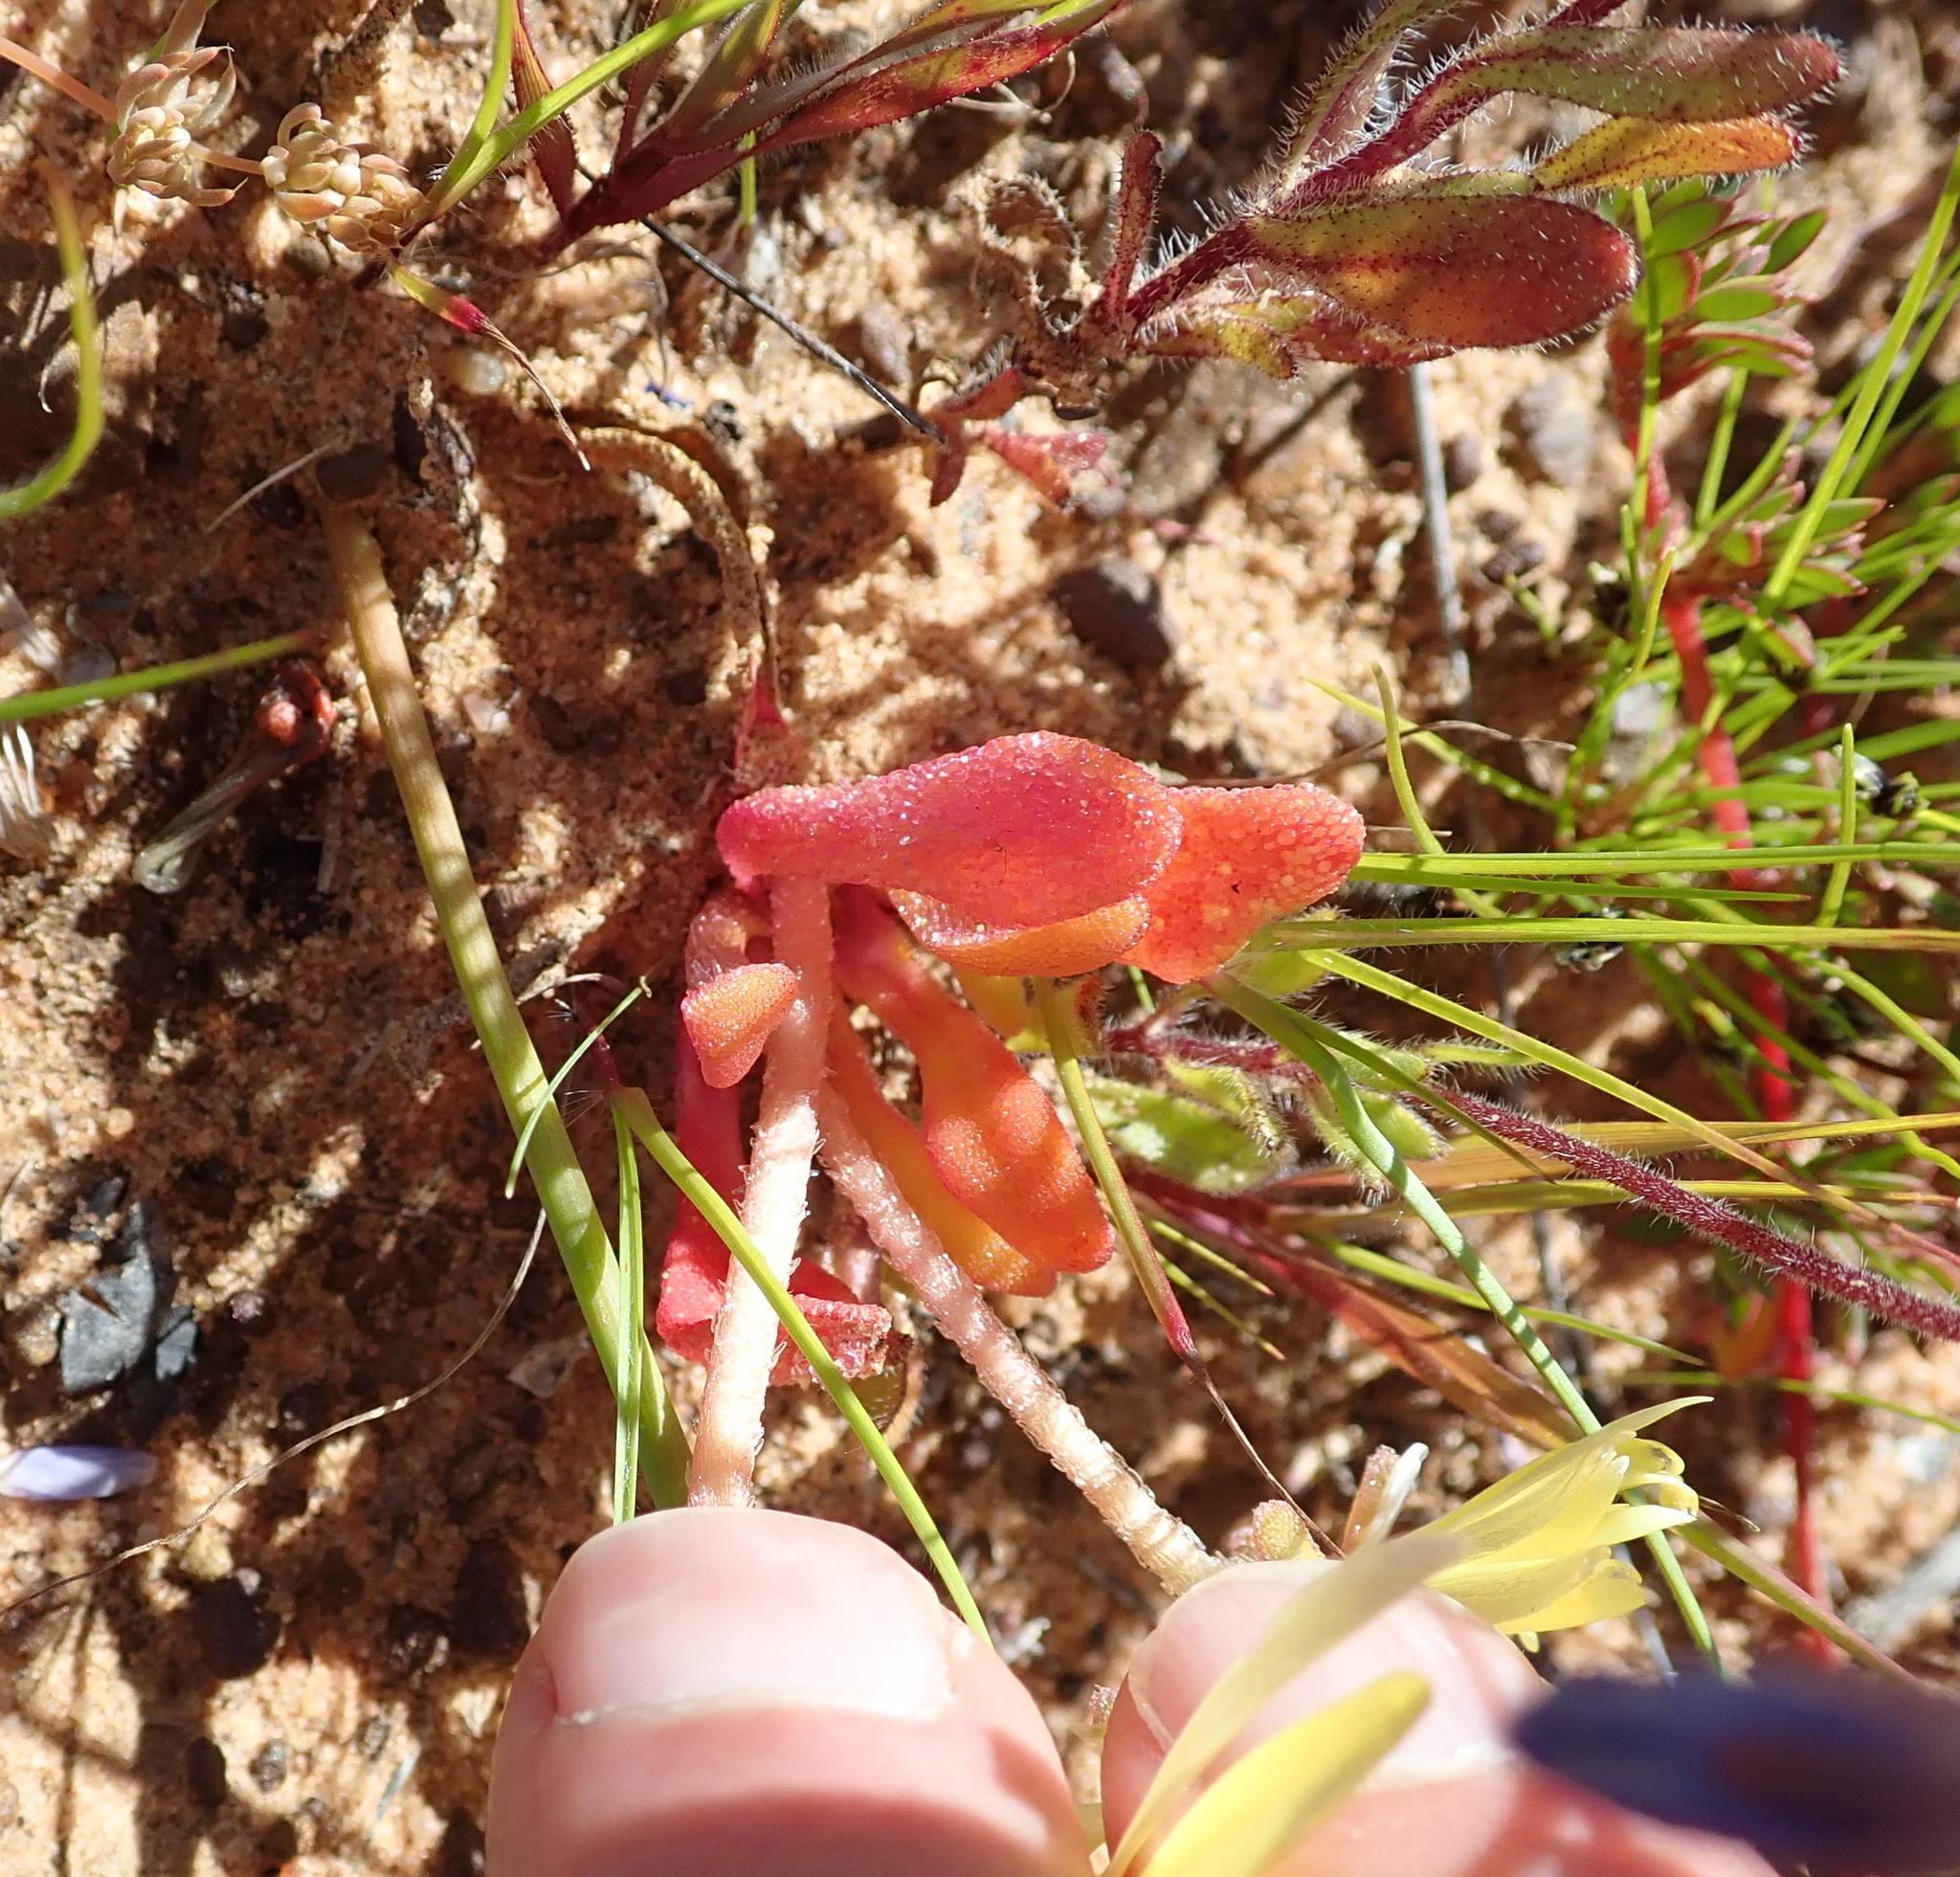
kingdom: Plantae
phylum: Tracheophyta
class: Magnoliopsida
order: Caryophyllales
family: Aizoaceae
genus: Cleretum
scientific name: Cleretum bellidiforme
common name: Livingstone daisy
